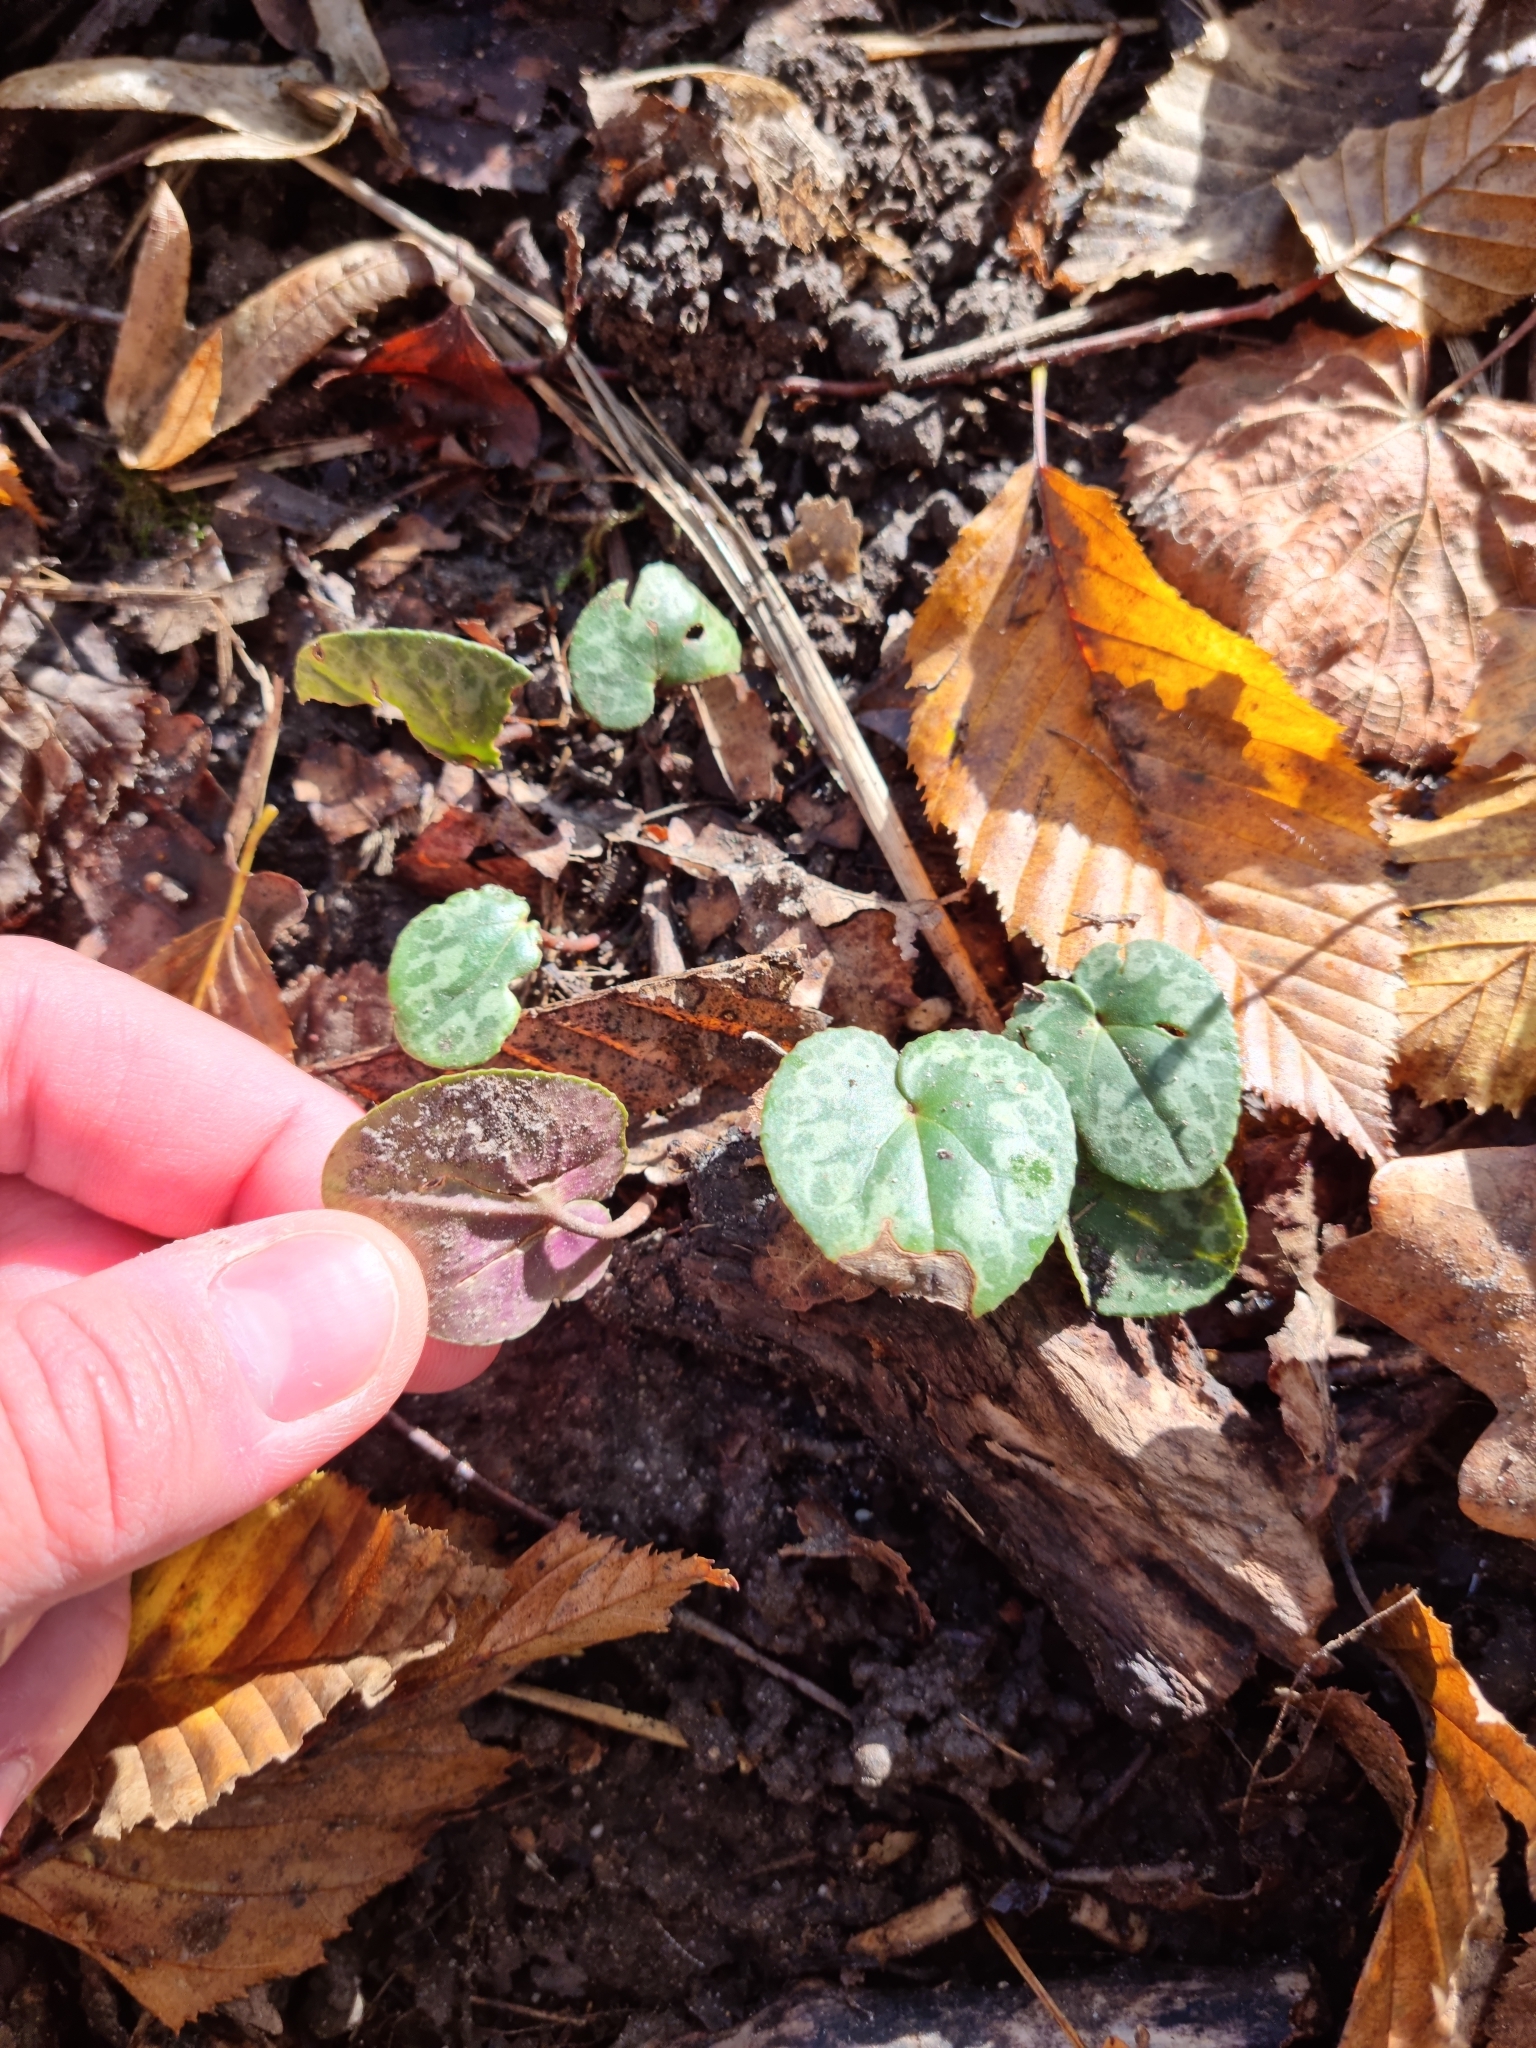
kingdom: Plantae
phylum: Tracheophyta
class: Magnoliopsida
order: Ericales
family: Primulaceae
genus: Cyclamen
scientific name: Cyclamen purpurascens
